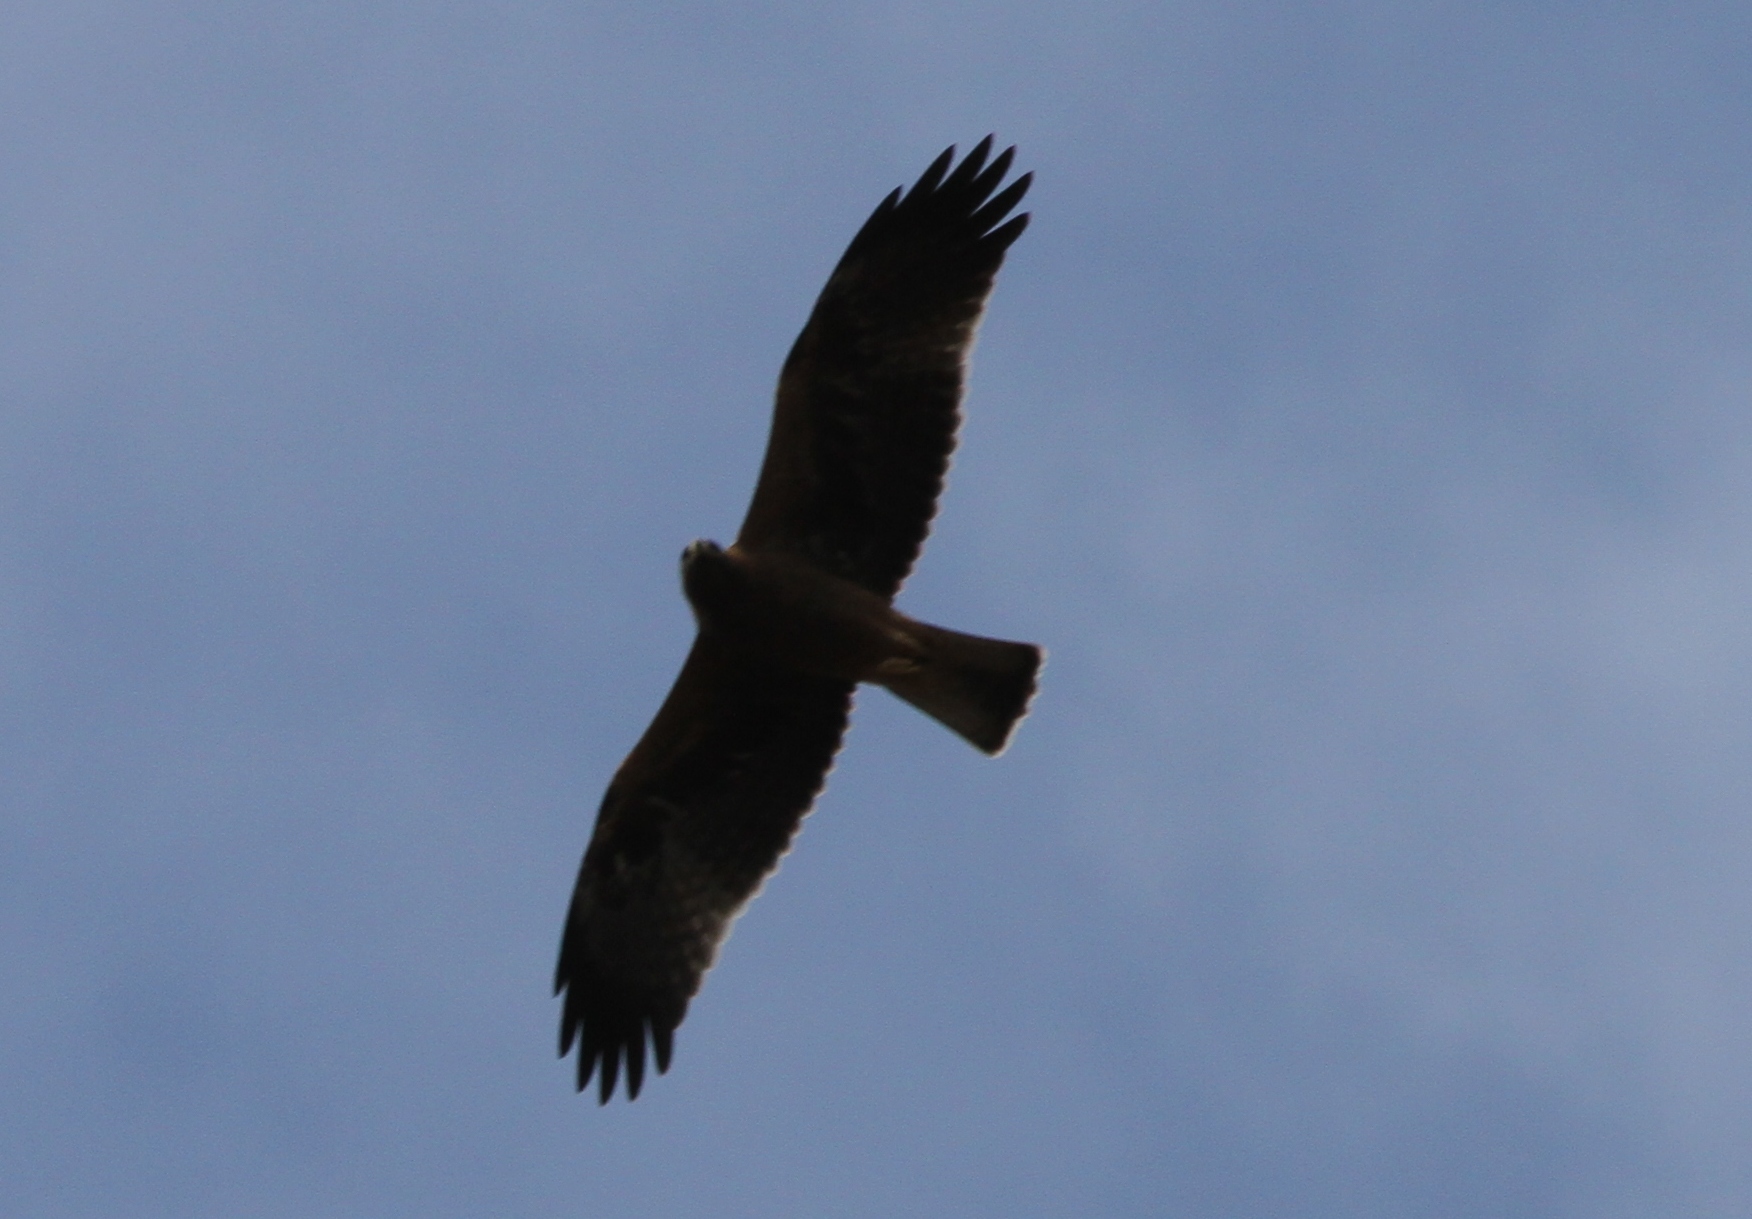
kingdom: Animalia
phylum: Chordata
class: Aves
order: Accipitriformes
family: Accipitridae
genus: Hieraaetus
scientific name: Hieraaetus pennatus
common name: Booted eagle
